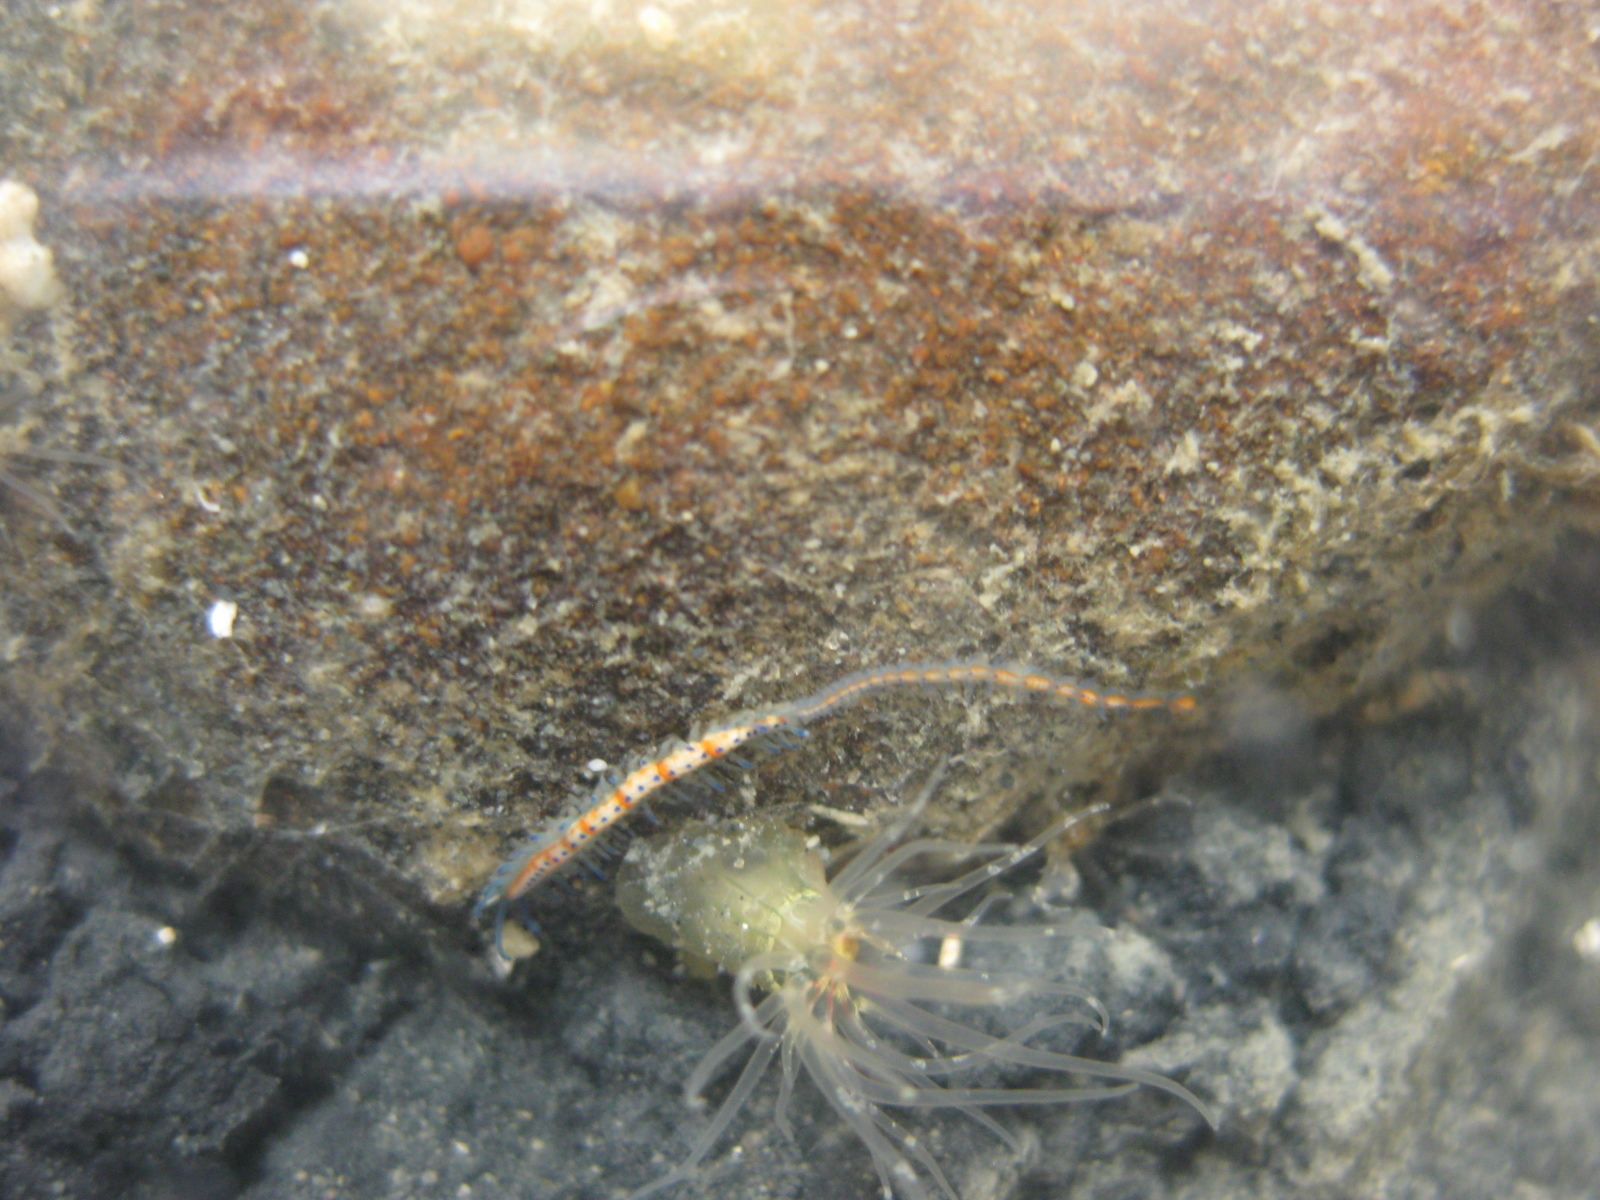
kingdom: Animalia
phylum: Annelida
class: Polychaeta
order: Phyllodocida
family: Syllidae
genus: Myrianida
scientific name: Myrianida pachycera
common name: Syllid polychaete
